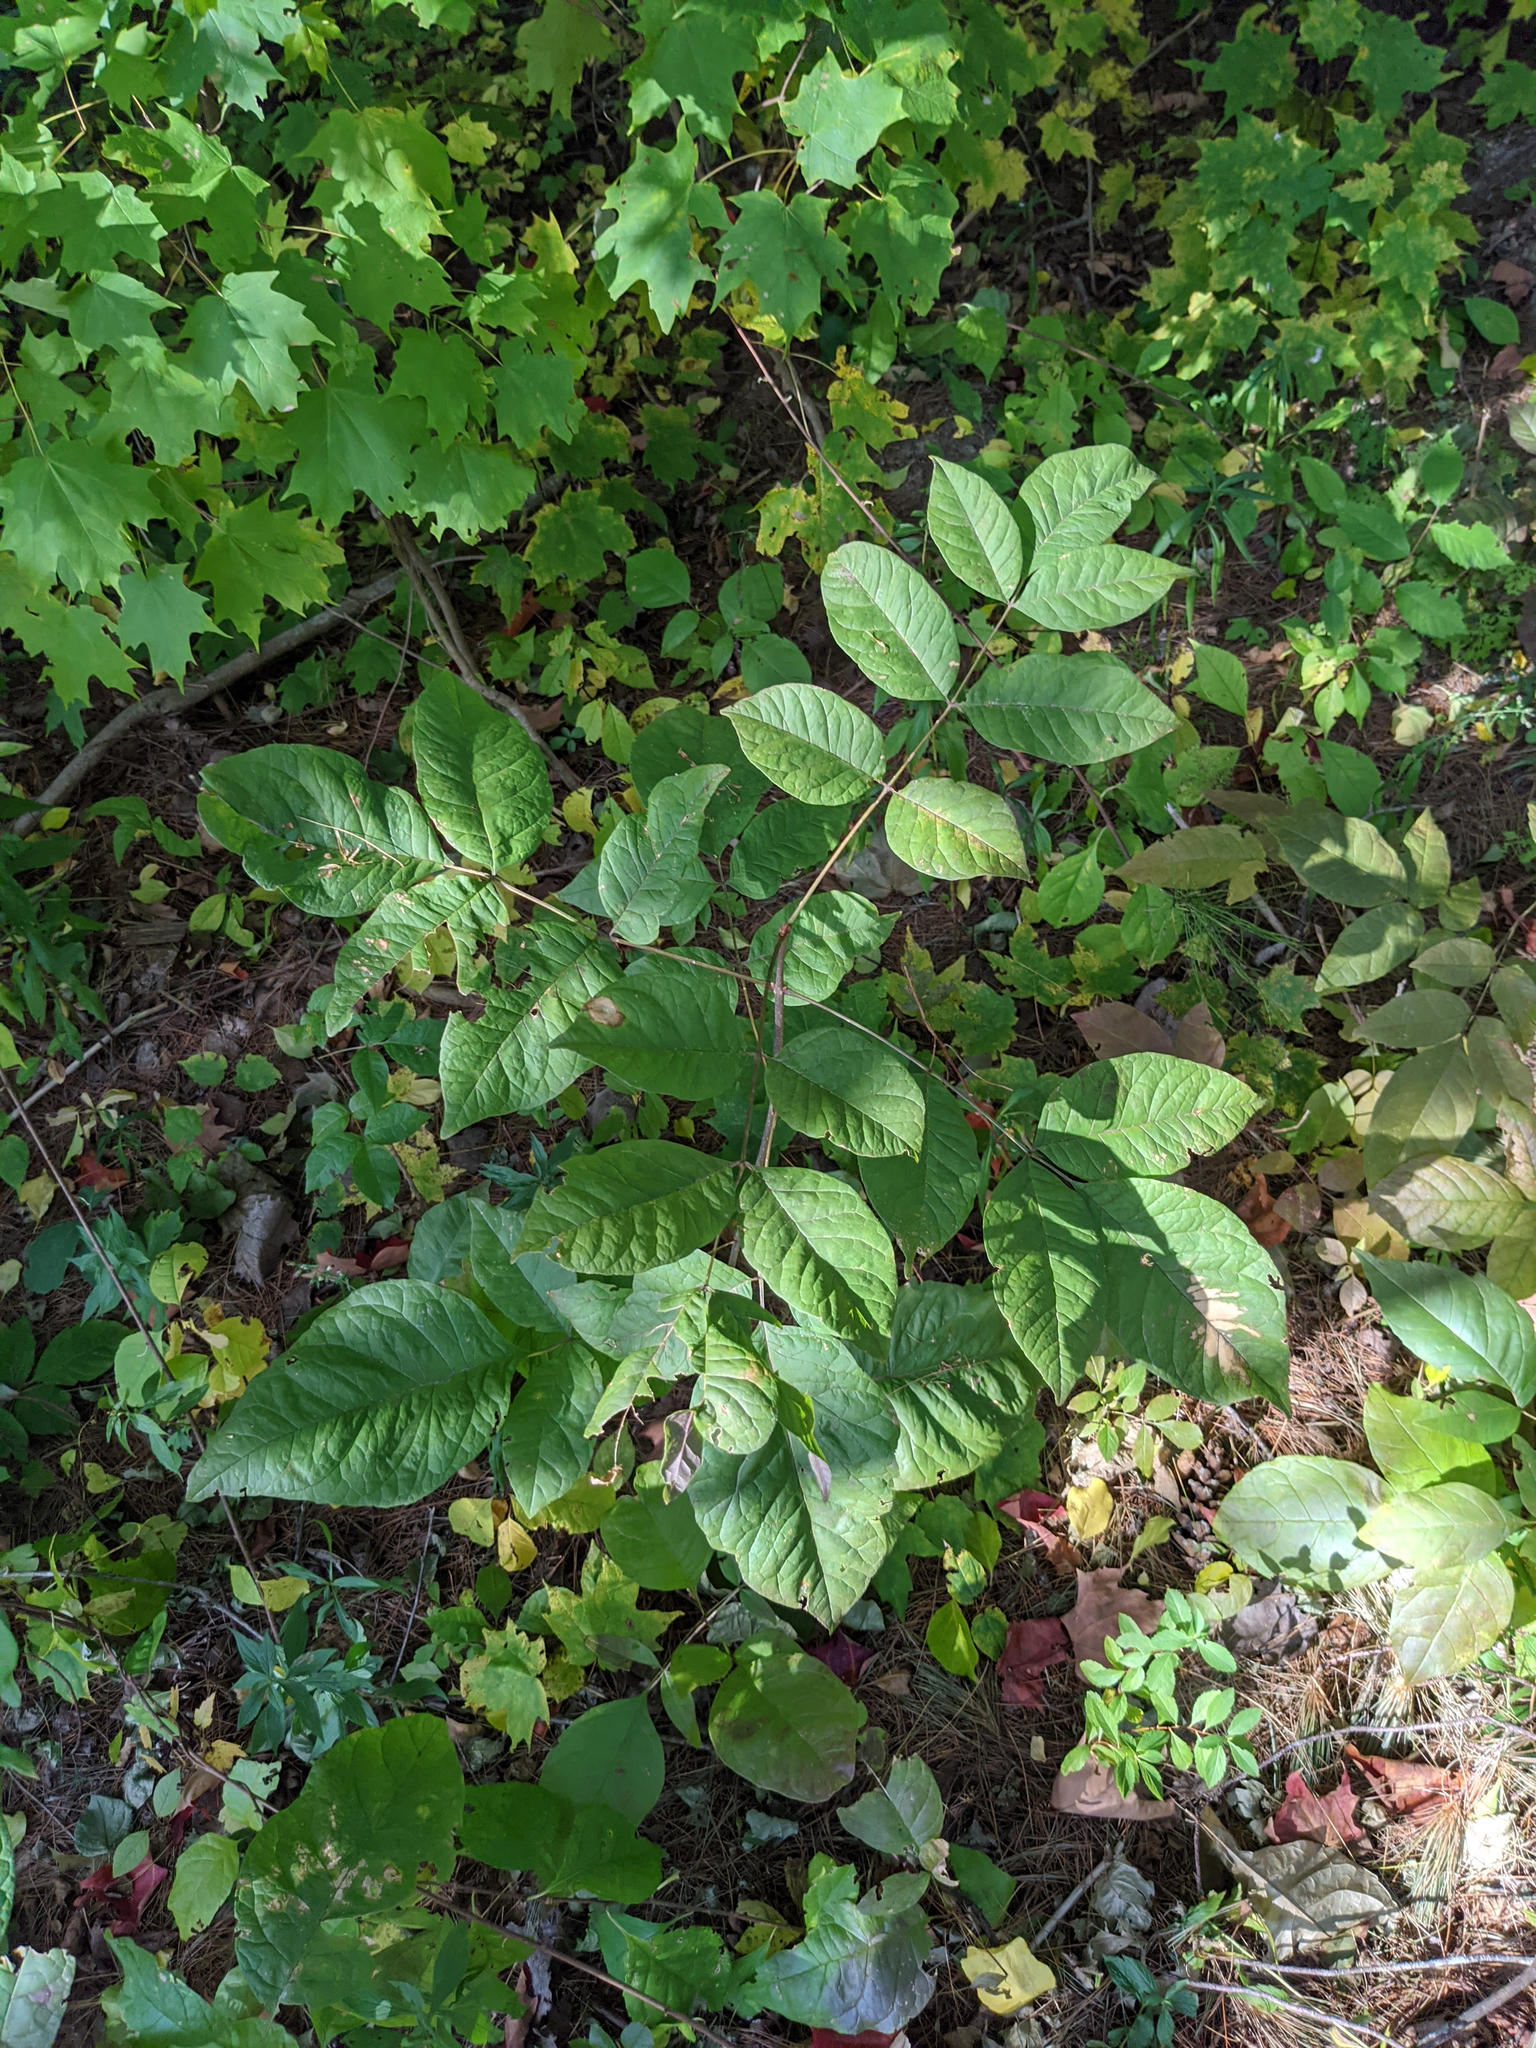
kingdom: Plantae
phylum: Tracheophyta
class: Magnoliopsida
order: Lamiales
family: Oleaceae
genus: Fraxinus
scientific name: Fraxinus americana
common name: White ash
